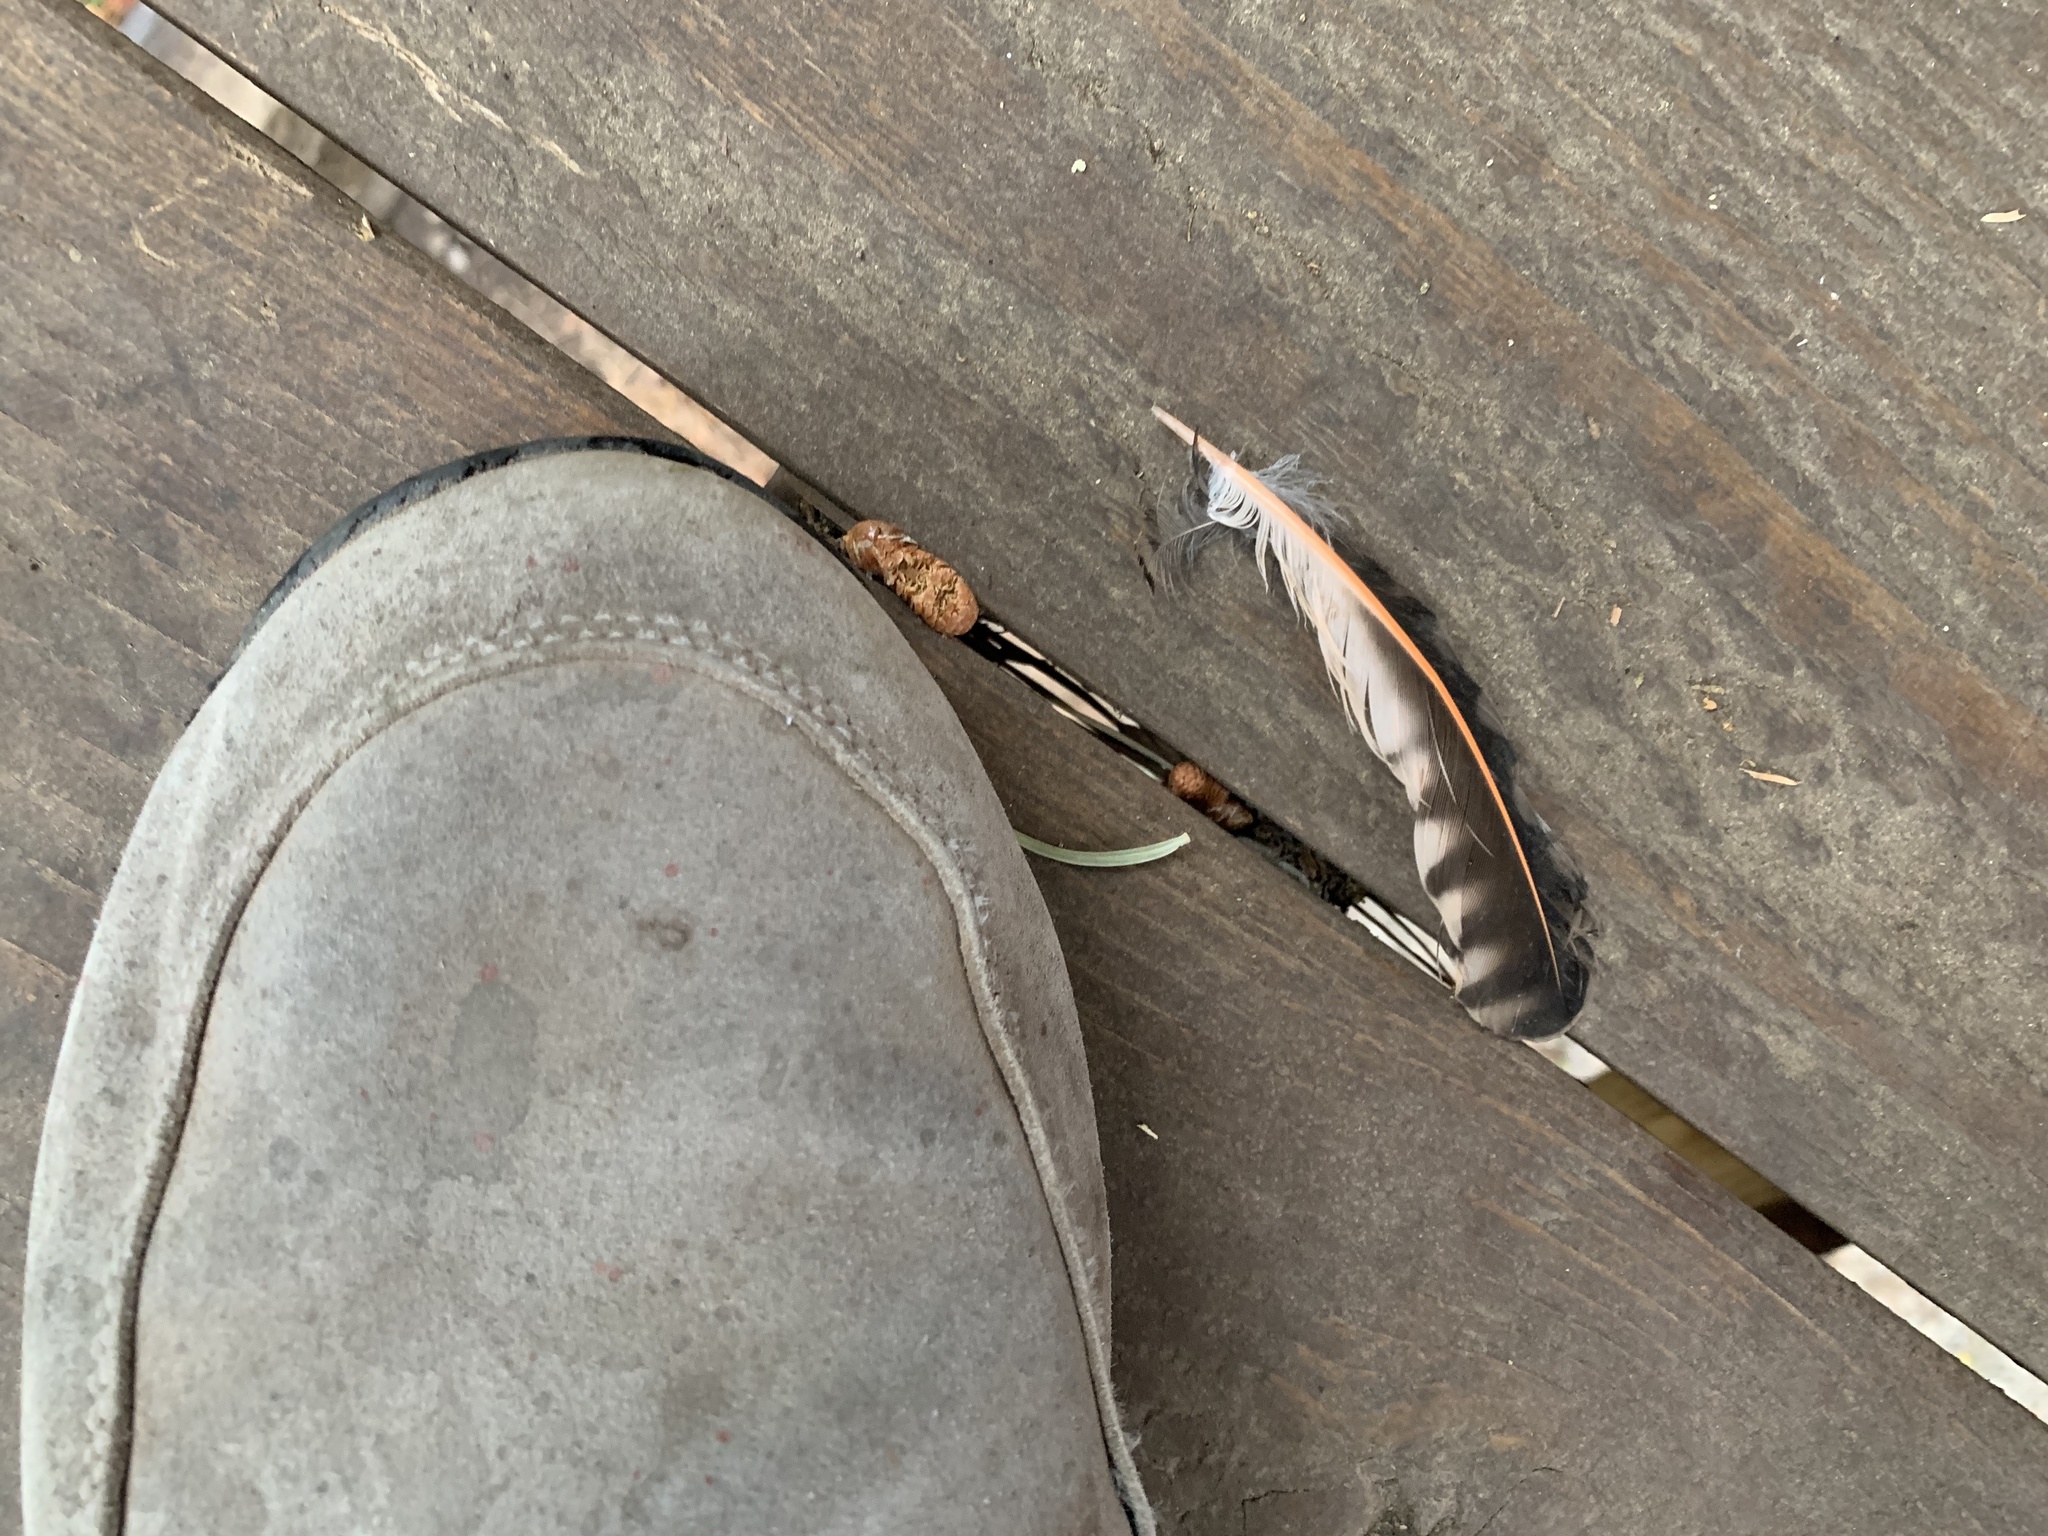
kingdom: Animalia
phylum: Chordata
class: Aves
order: Piciformes
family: Picidae
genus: Colaptes
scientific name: Colaptes auratus
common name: Northern flicker
